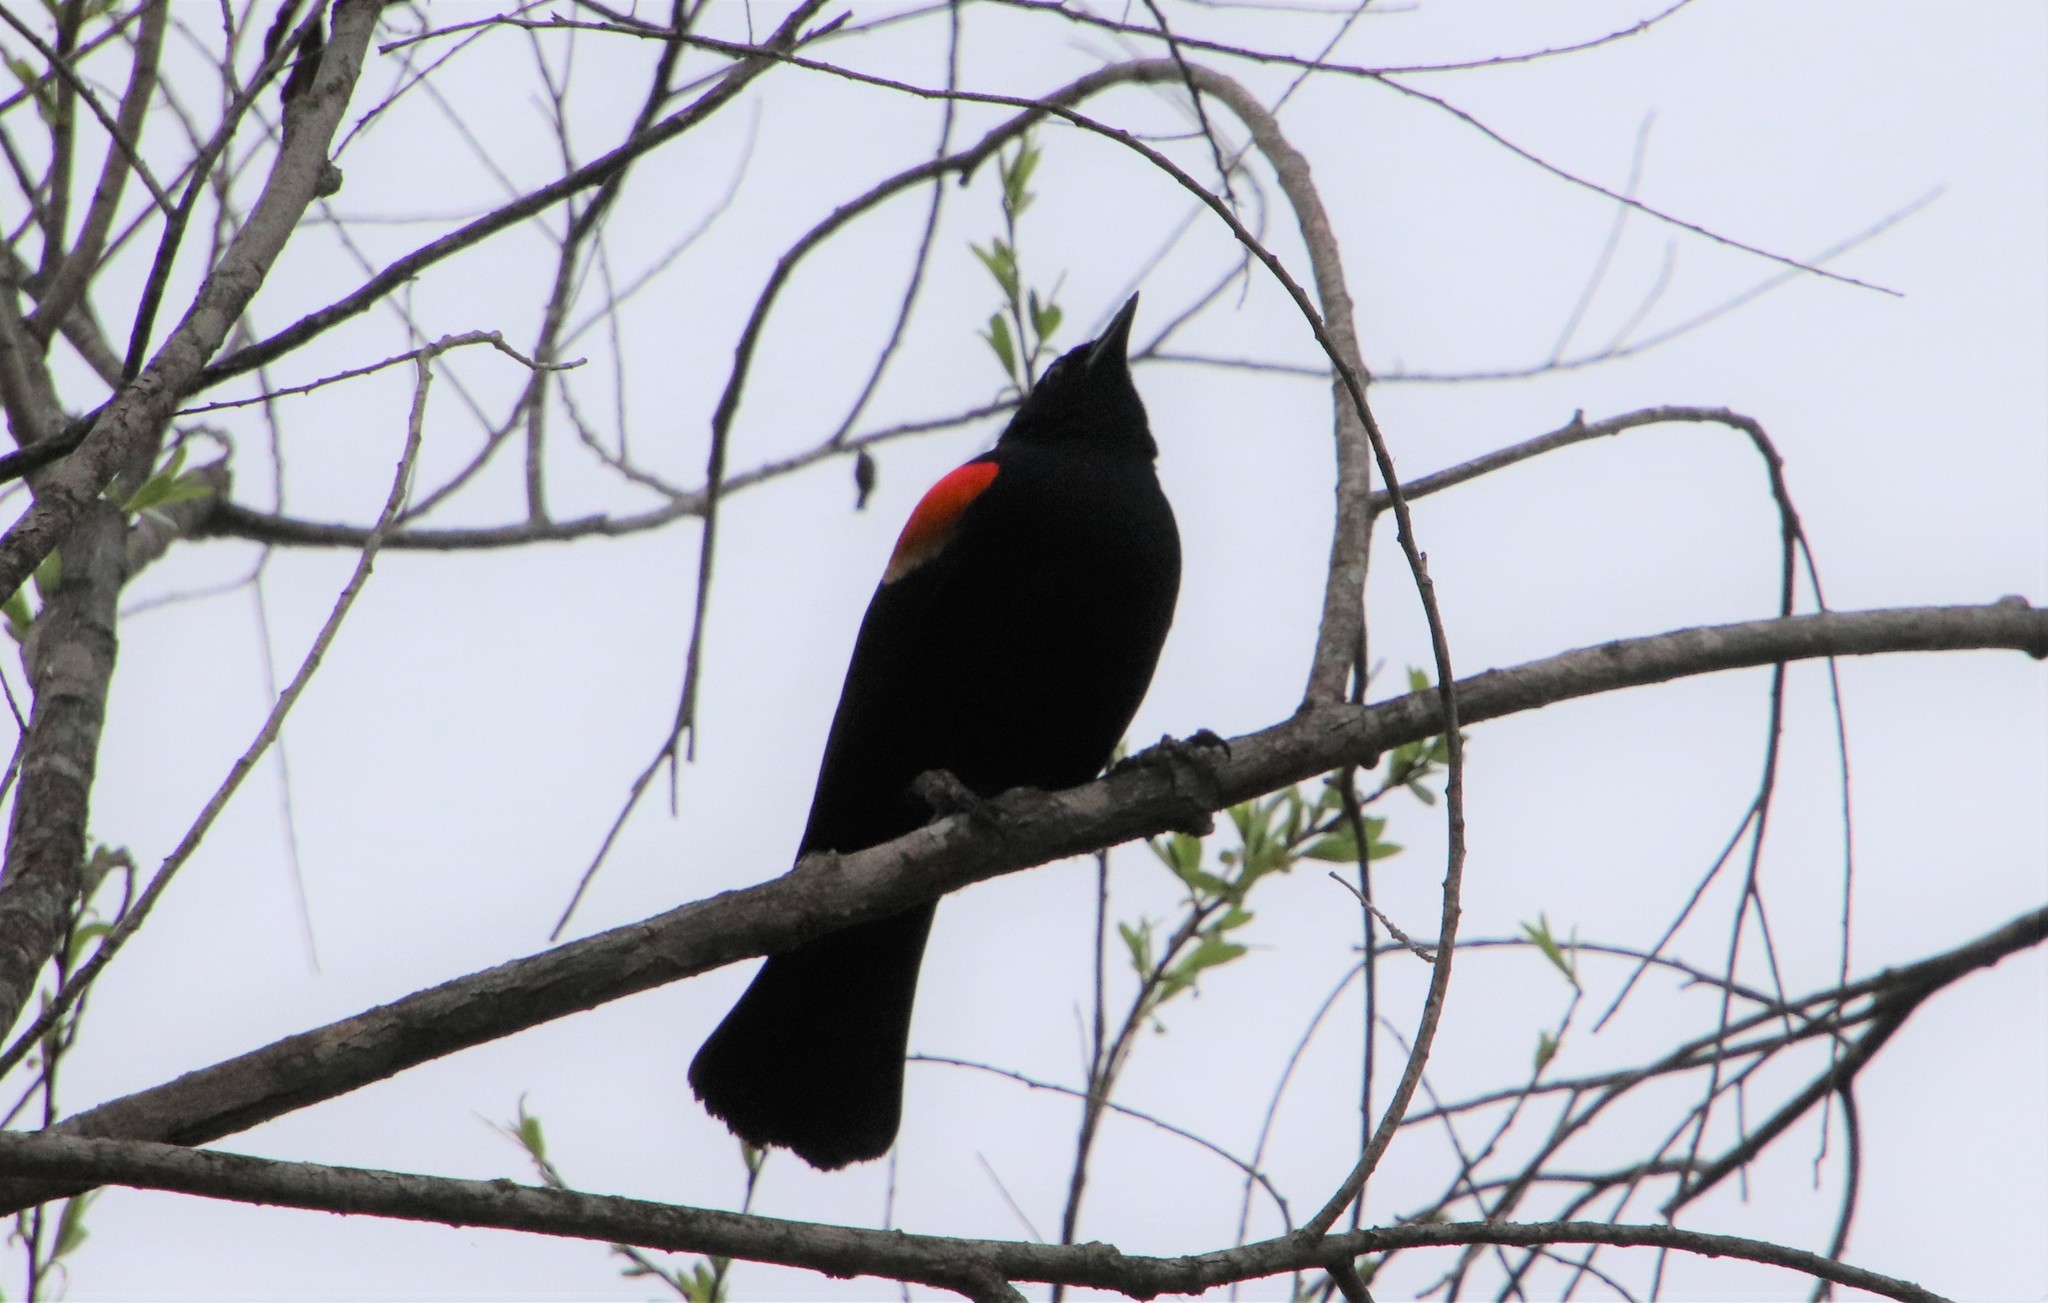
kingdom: Animalia
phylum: Chordata
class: Aves
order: Passeriformes
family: Icteridae
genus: Agelaius
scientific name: Agelaius phoeniceus
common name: Red-winged blackbird
